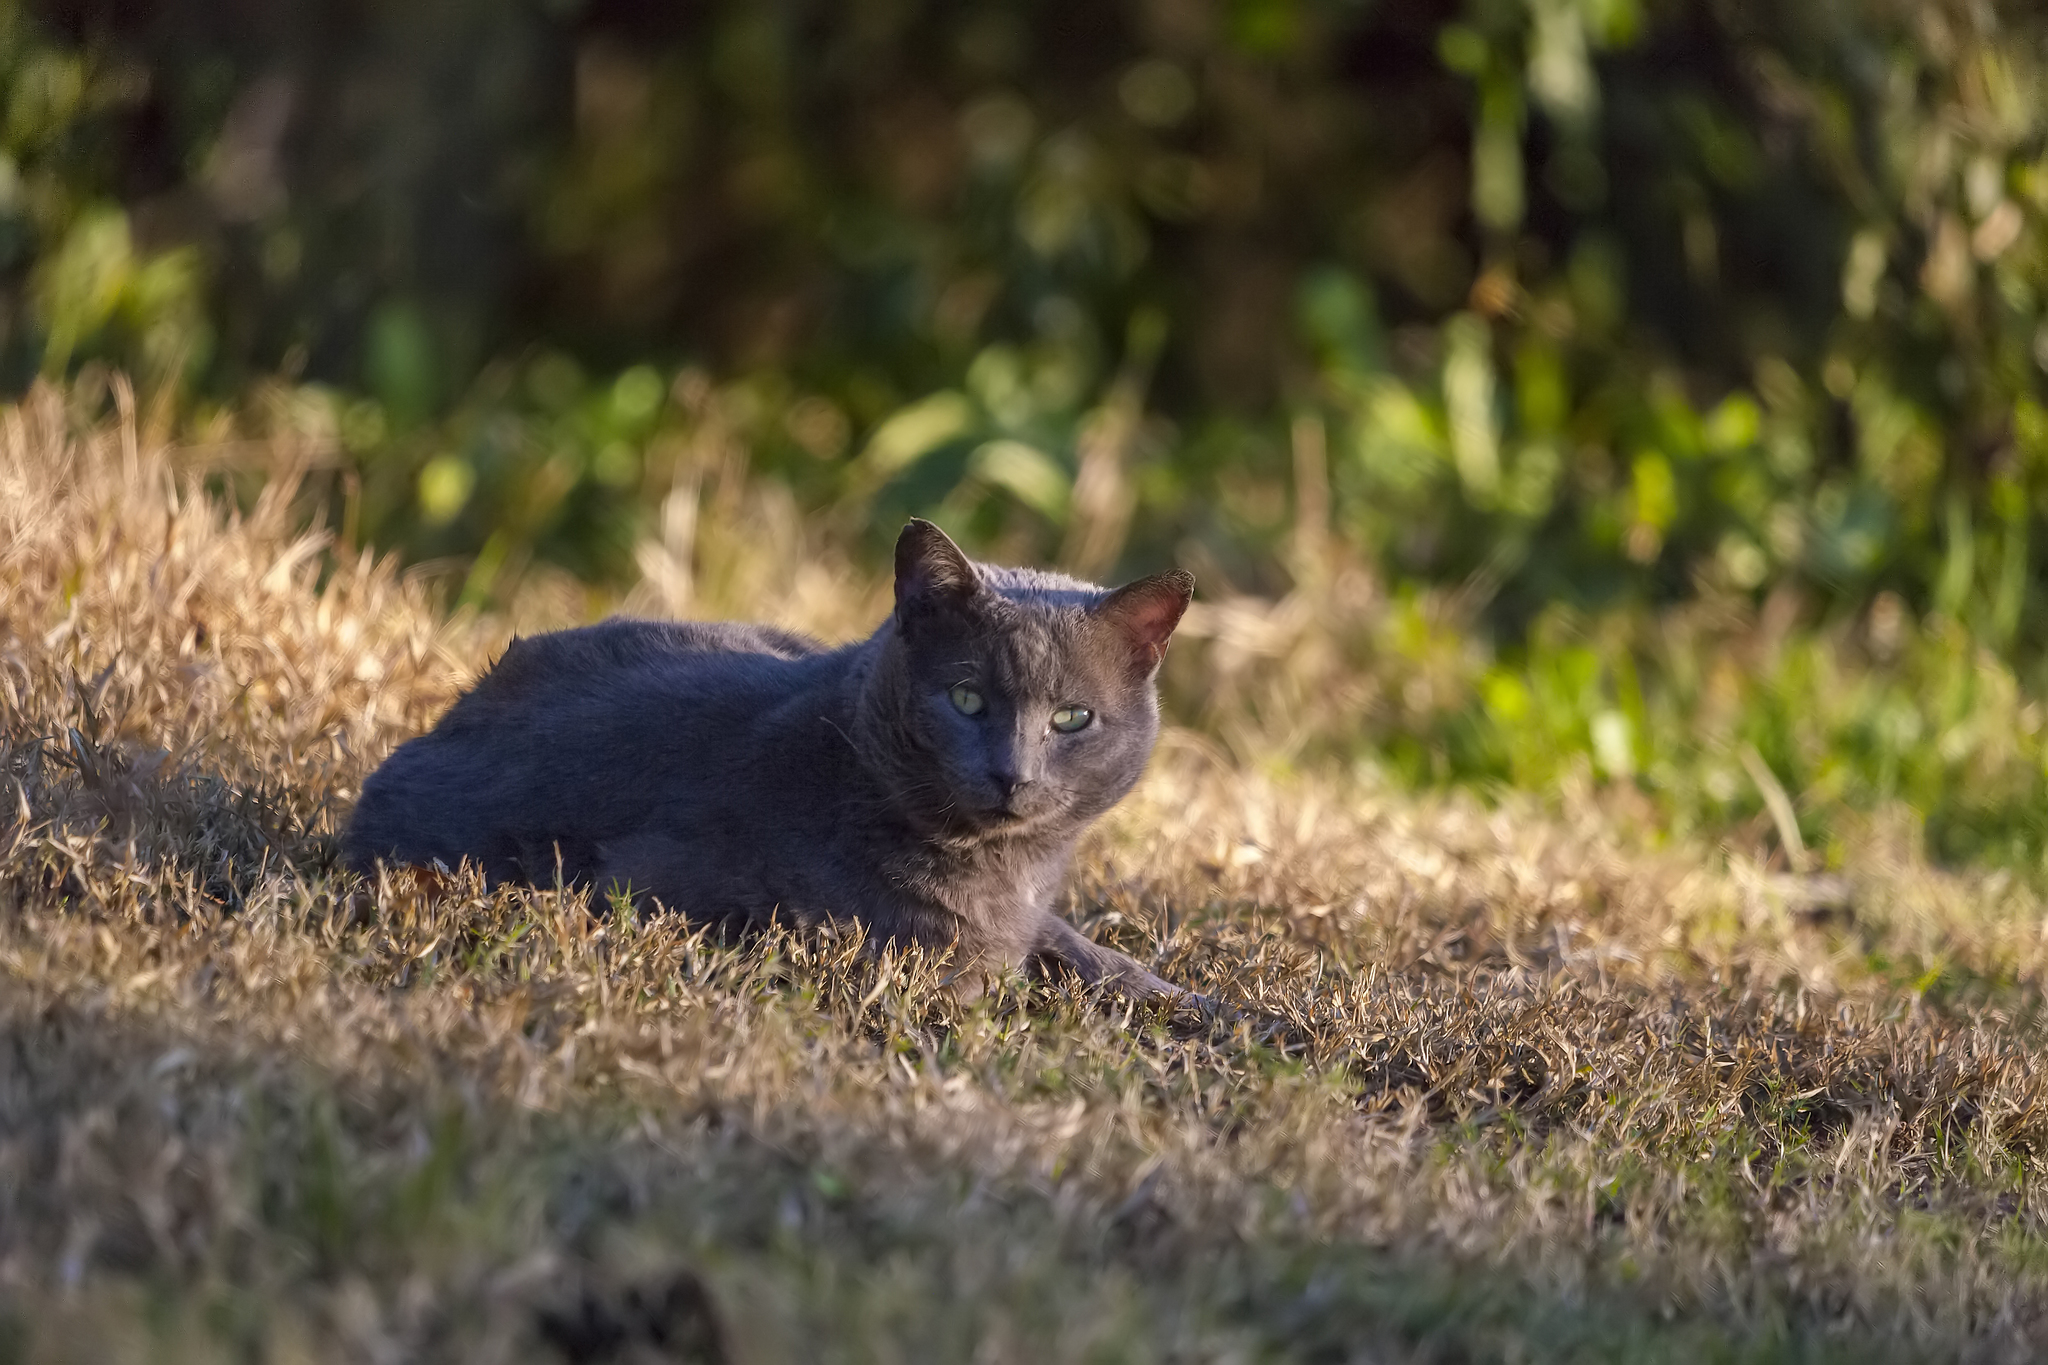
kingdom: Animalia
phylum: Chordata
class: Mammalia
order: Carnivora
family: Felidae
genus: Felis
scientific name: Felis catus
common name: Domestic cat
